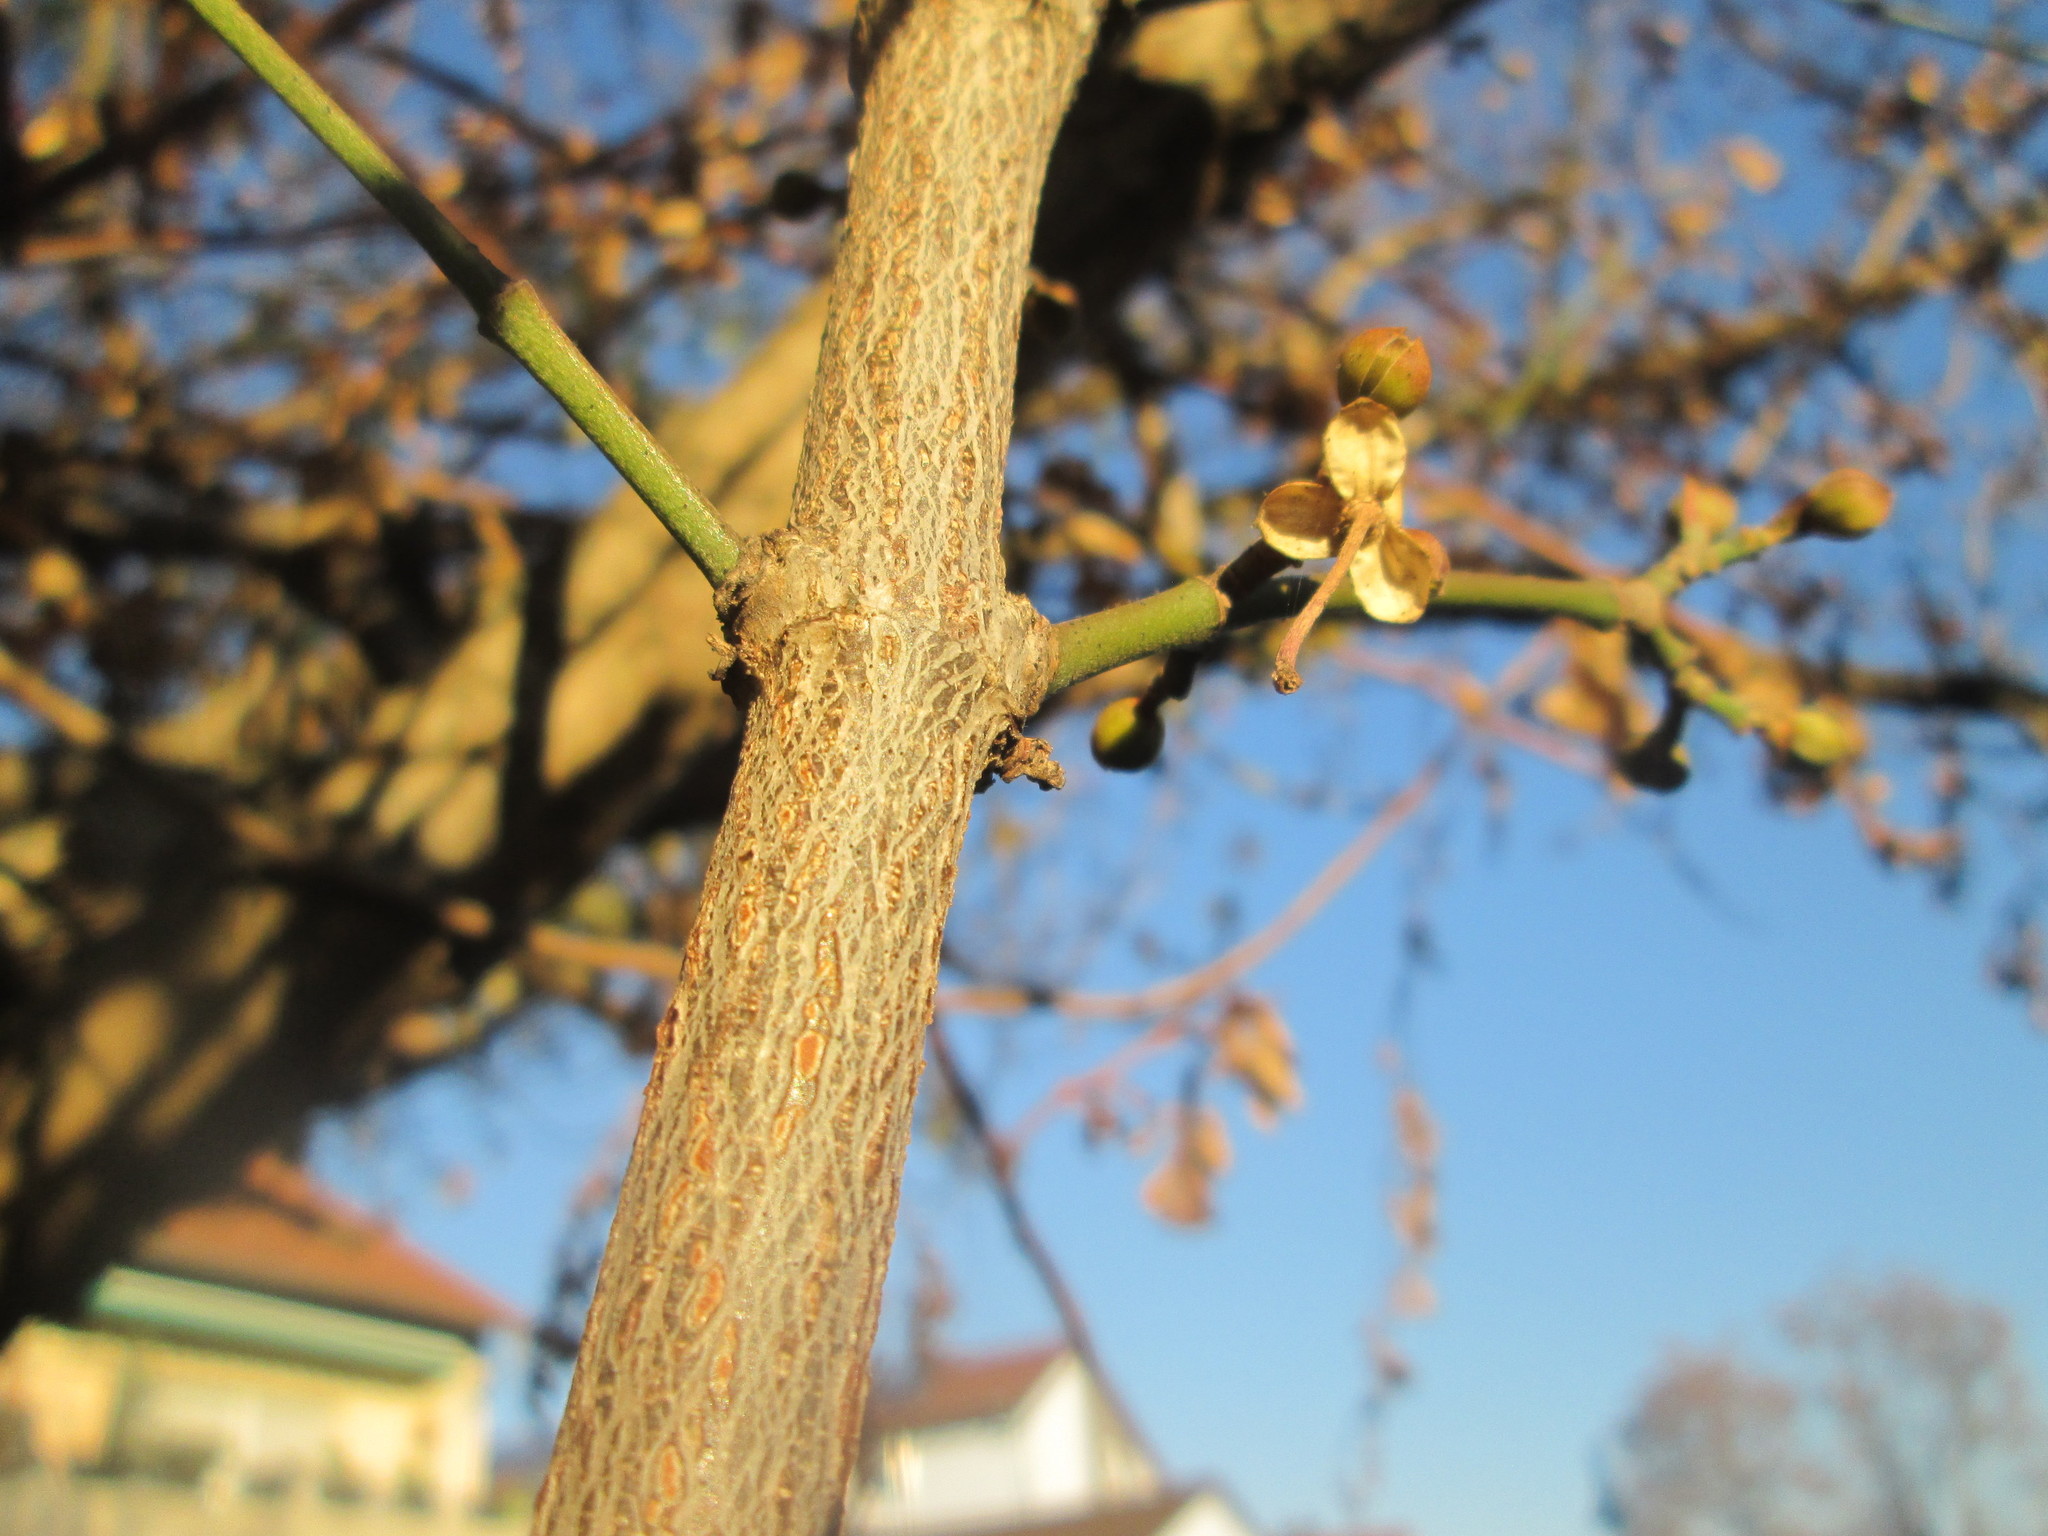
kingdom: Plantae
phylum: Tracheophyta
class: Magnoliopsida
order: Cornales
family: Cornaceae
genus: Cornus
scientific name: Cornus mas
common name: Cornelian-cherry
